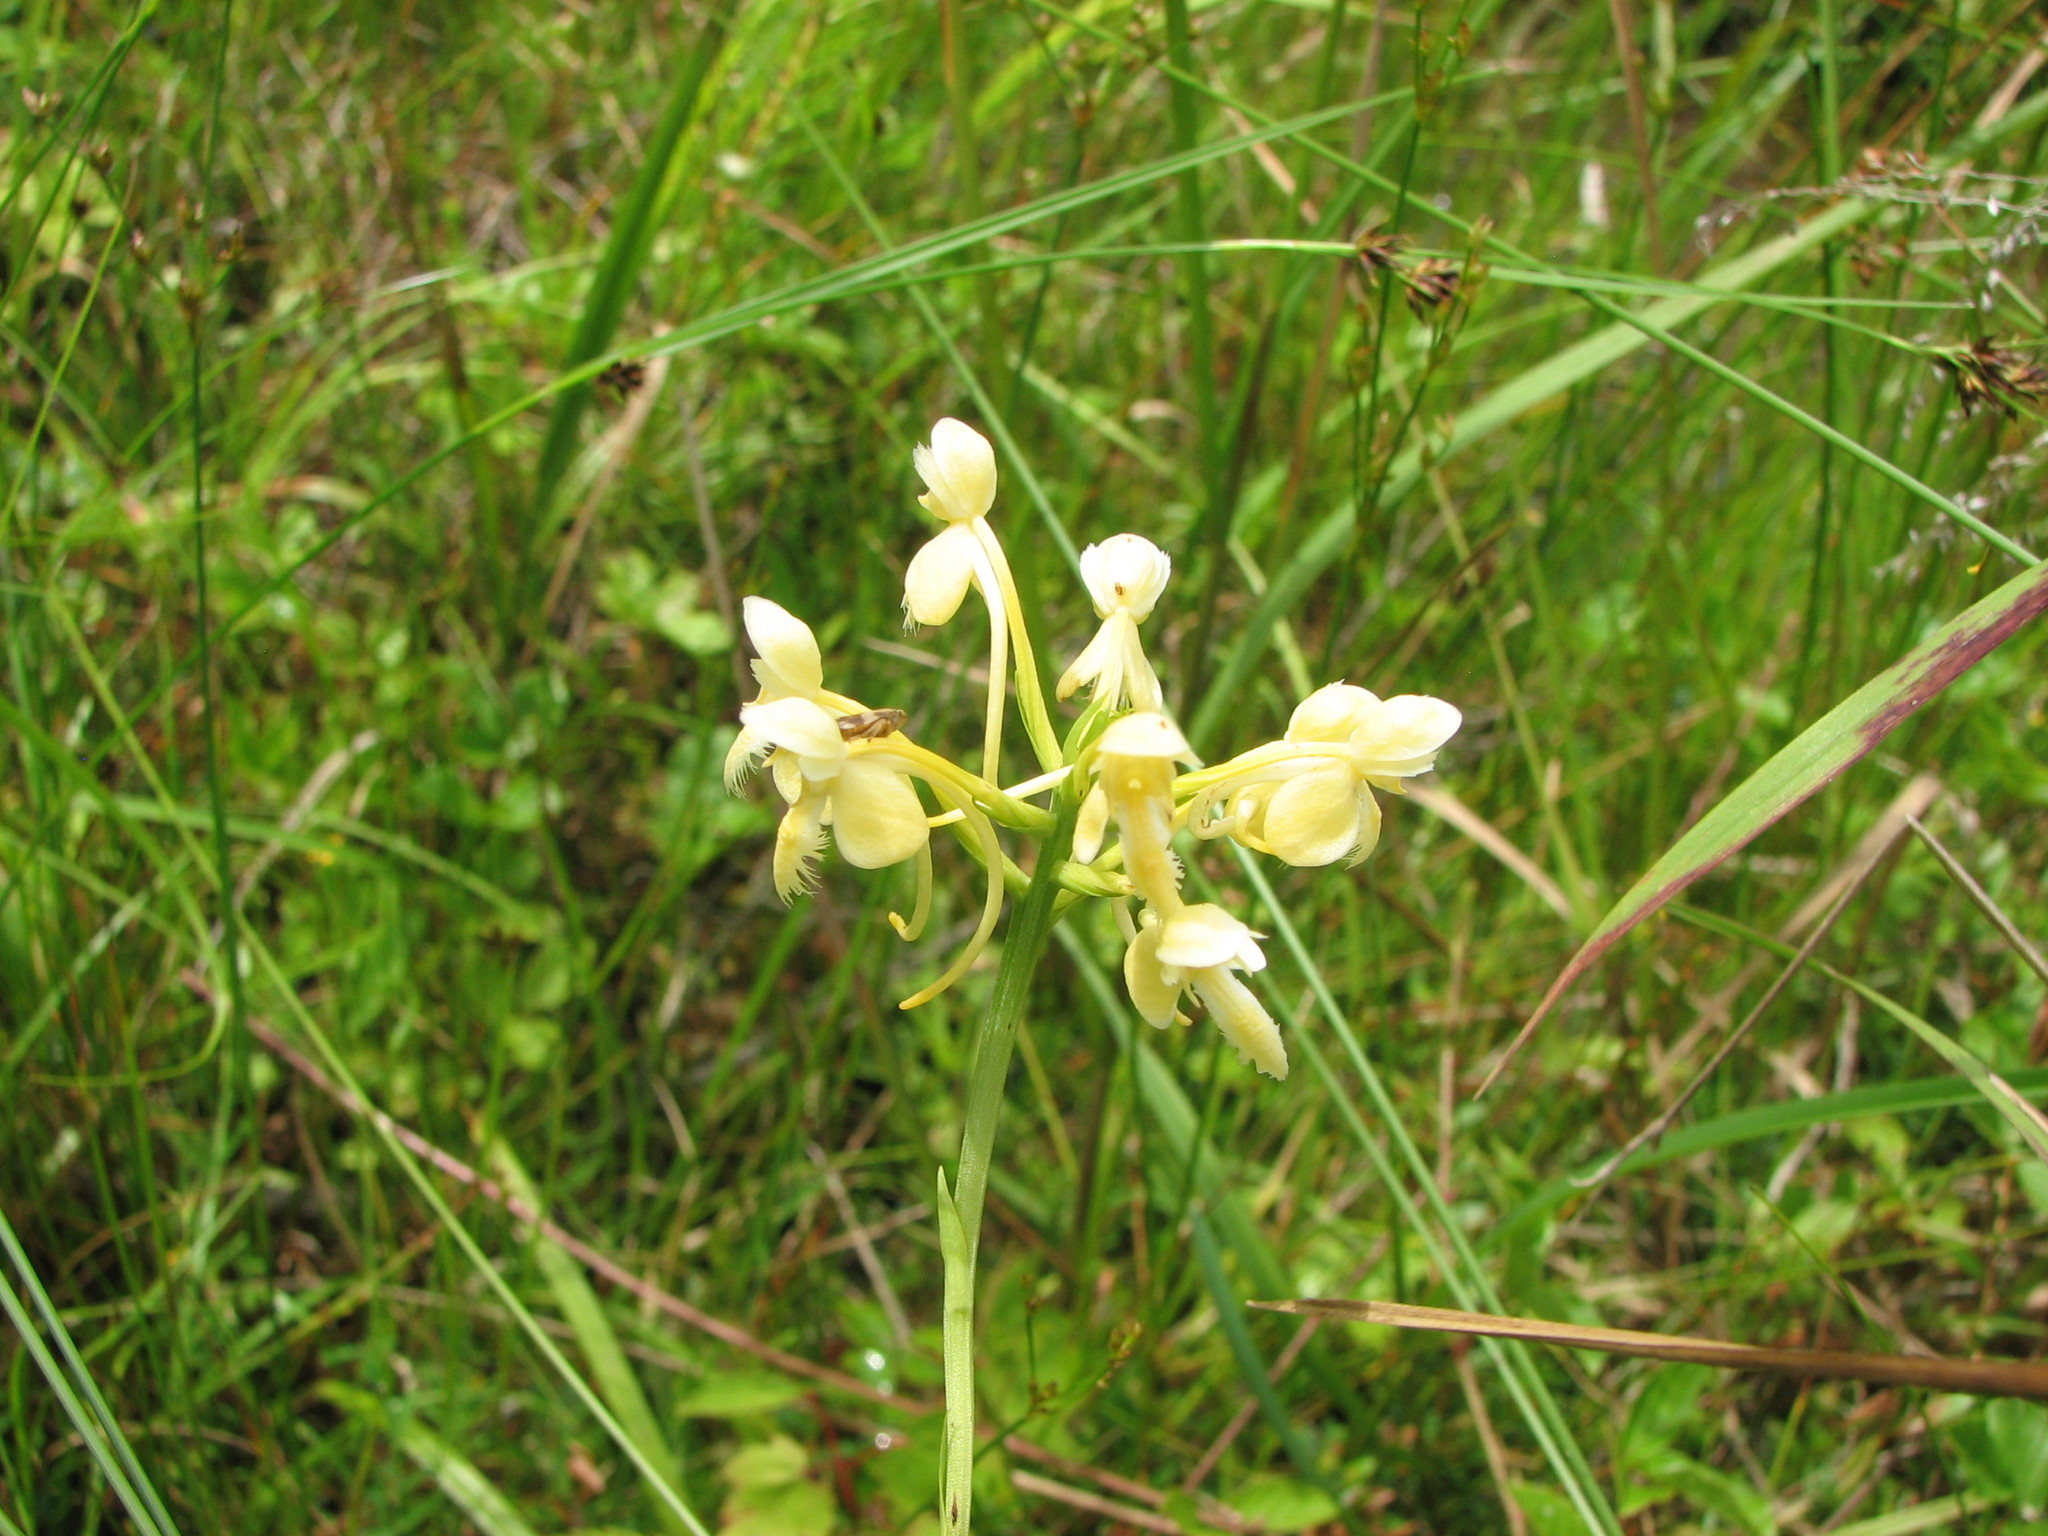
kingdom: Plantae
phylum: Tracheophyta
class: Liliopsida
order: Asparagales
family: Orchidaceae
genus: Platanthera
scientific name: Platanthera bicolor
